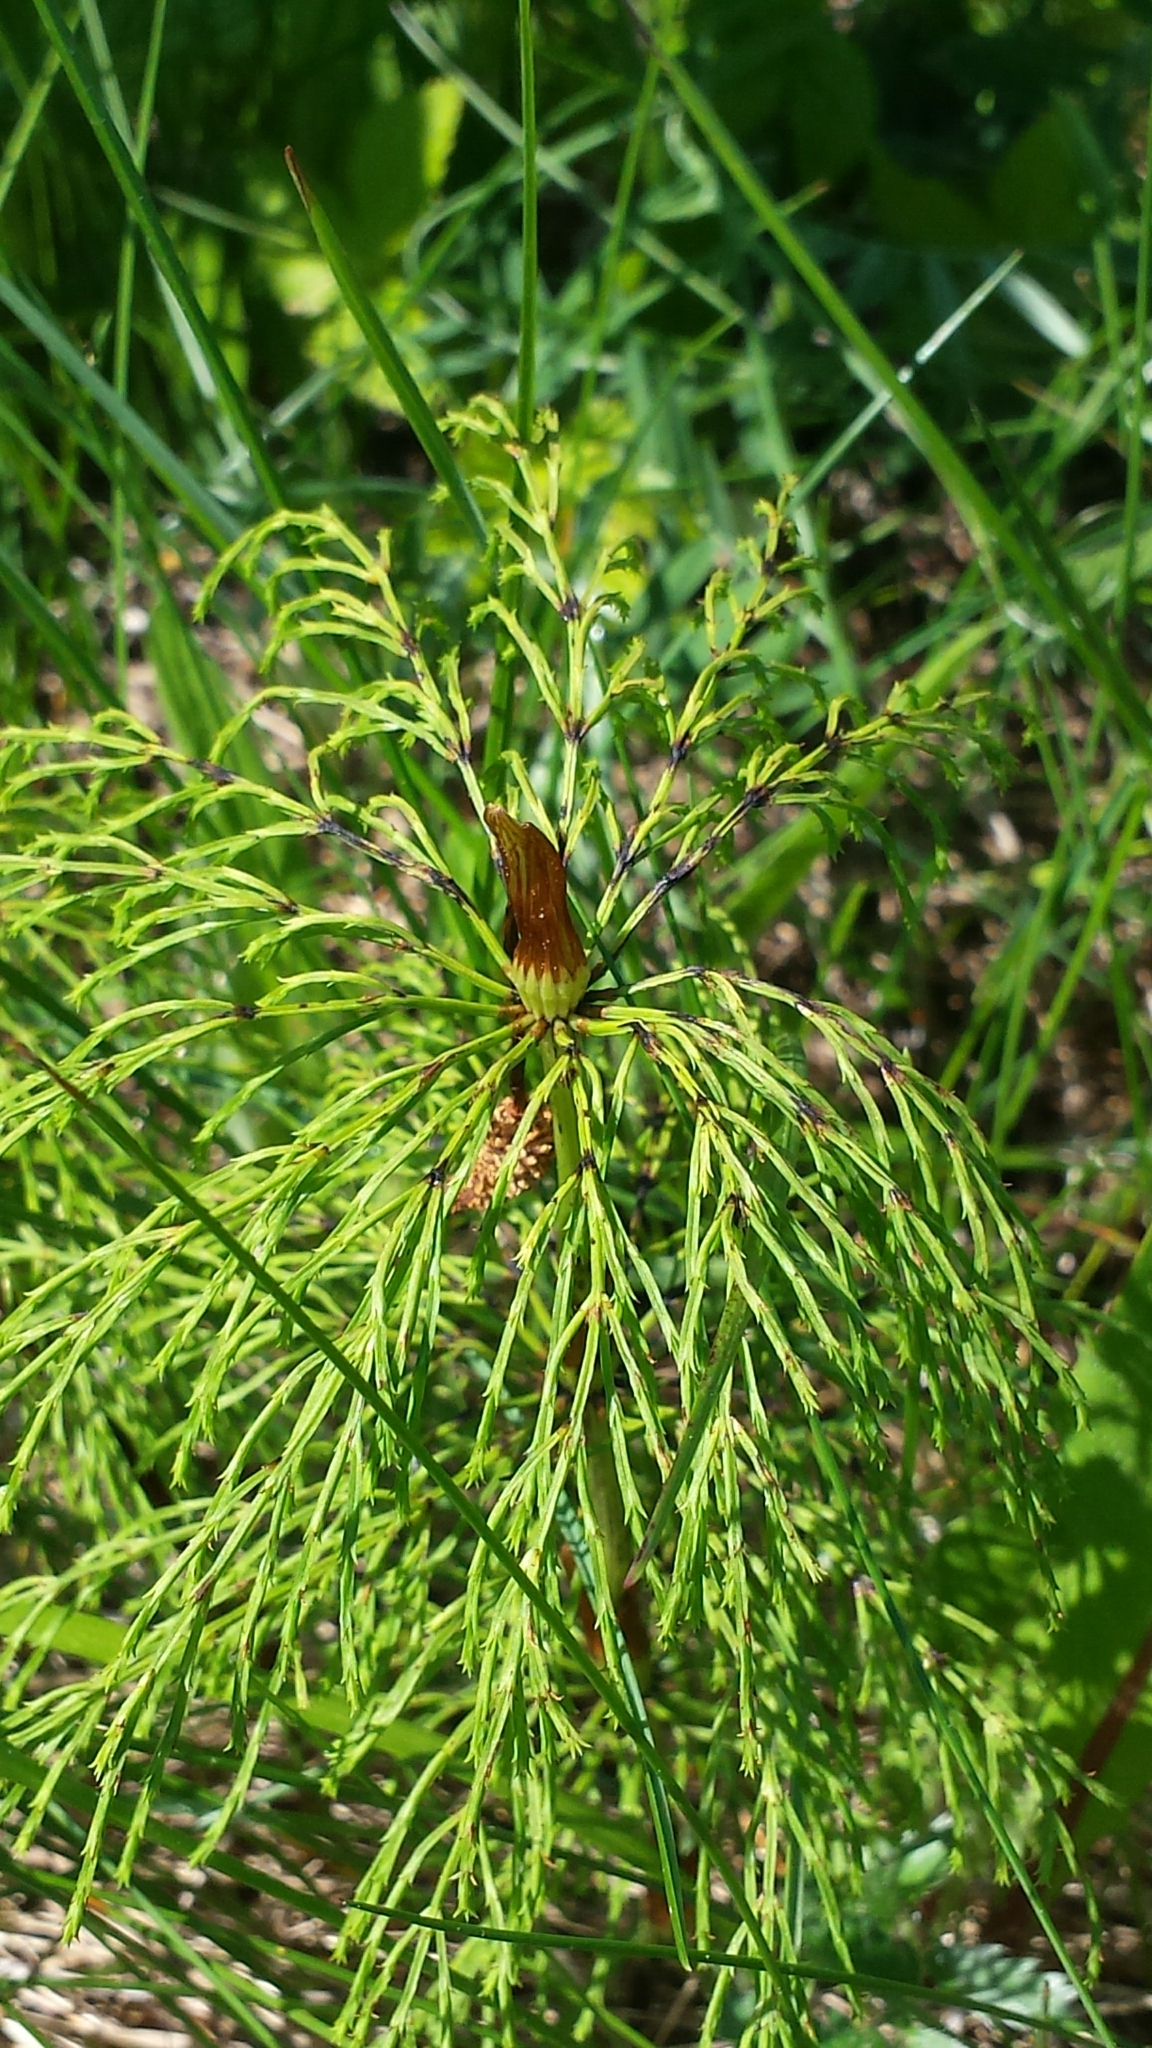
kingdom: Plantae
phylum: Tracheophyta
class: Polypodiopsida
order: Equisetales
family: Equisetaceae
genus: Equisetum
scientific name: Equisetum sylvaticum
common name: Wood horsetail
